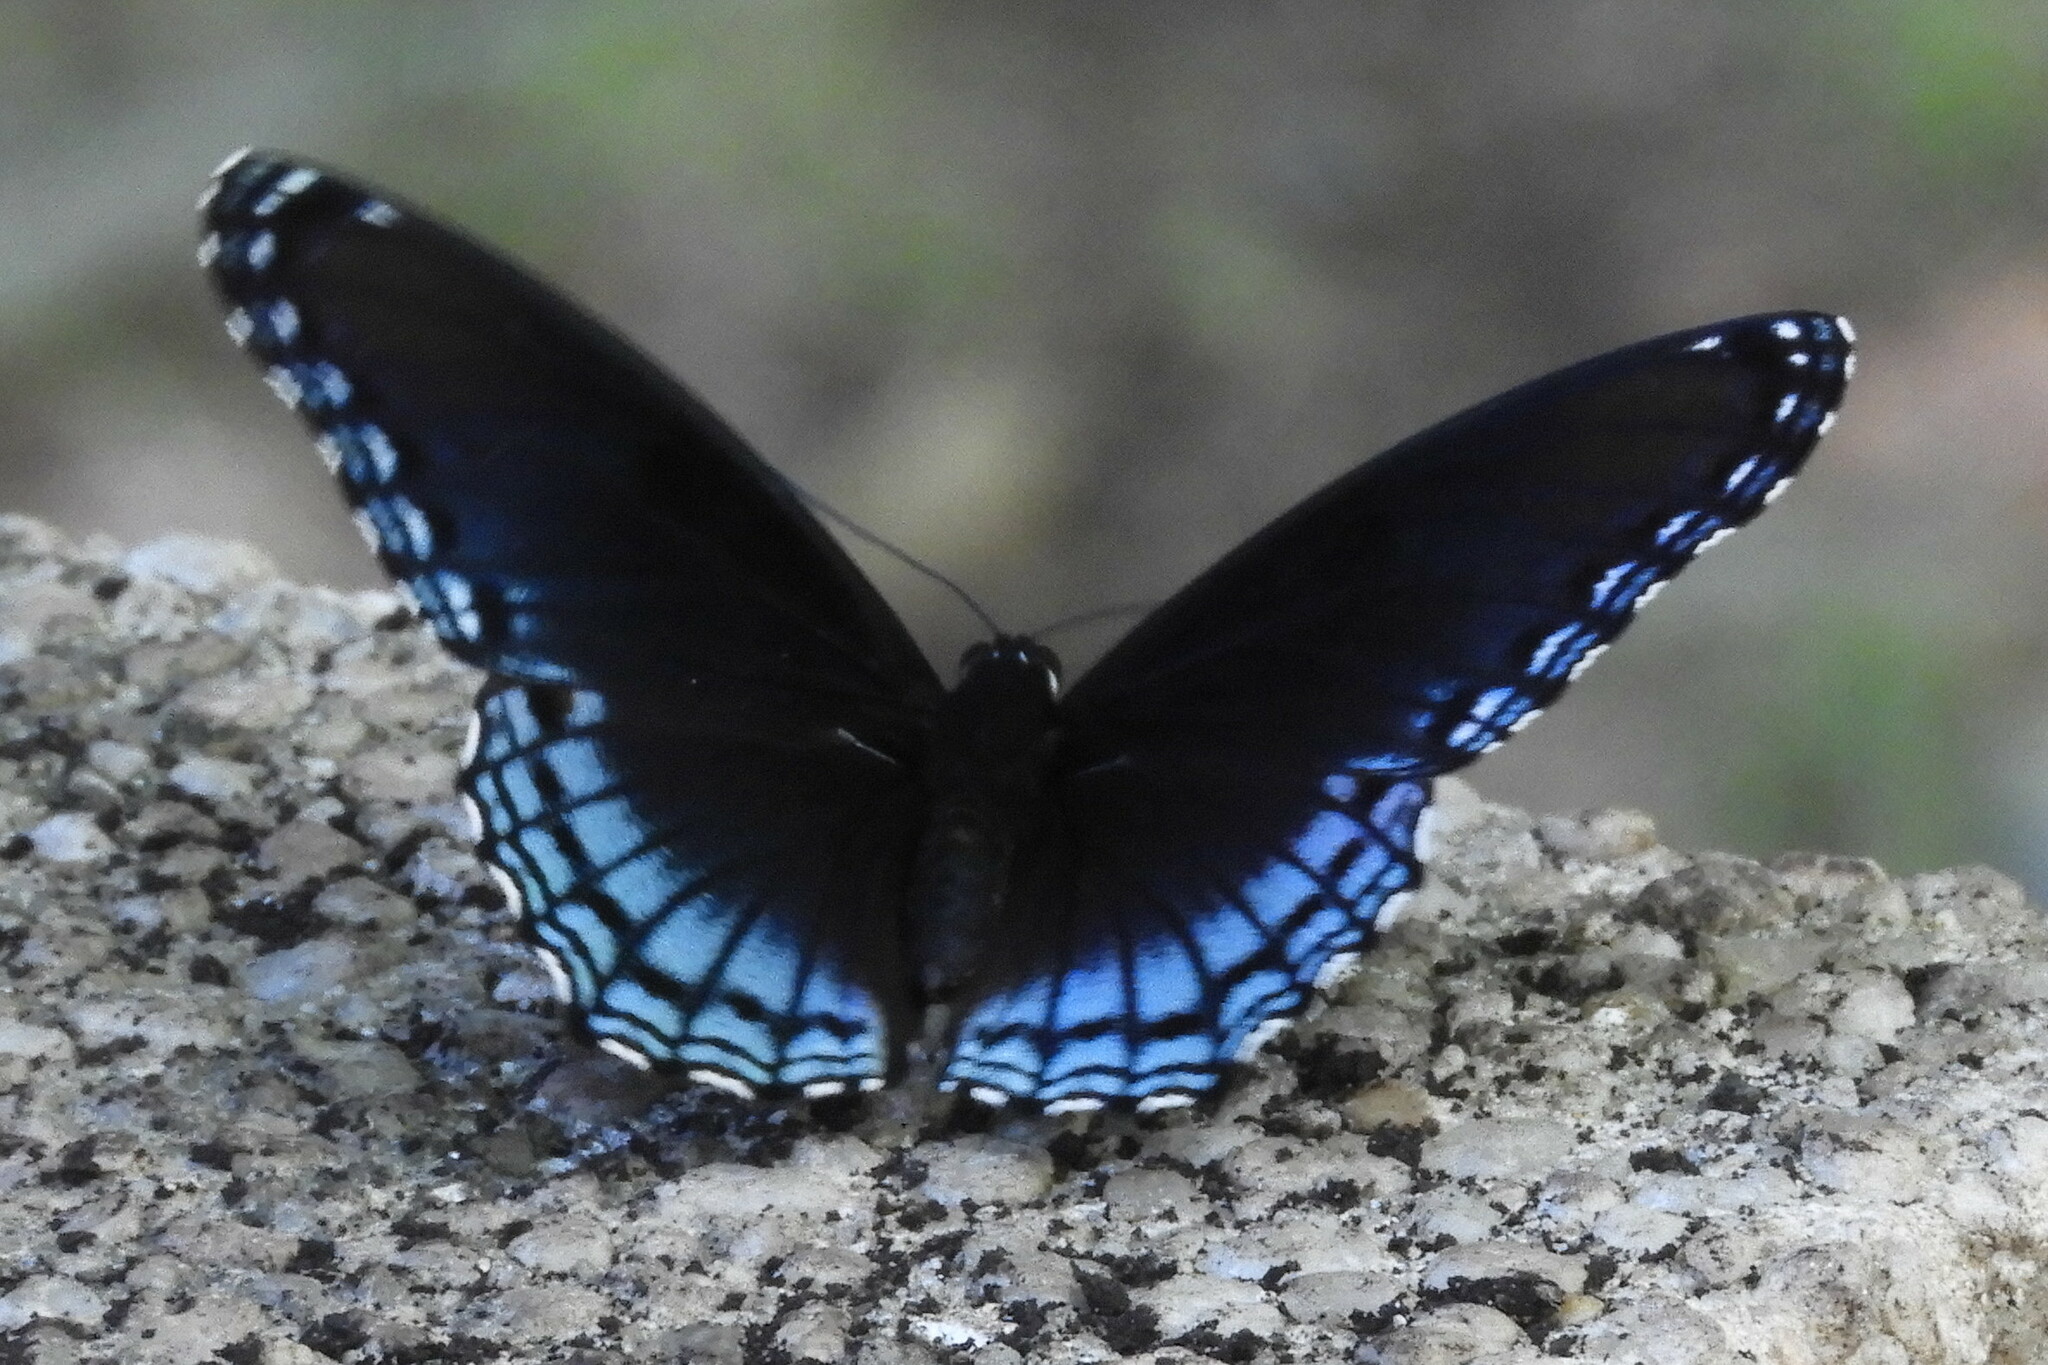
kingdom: Animalia
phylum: Arthropoda
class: Insecta
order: Lepidoptera
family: Nymphalidae
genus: Limenitis
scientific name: Limenitis astyanax
